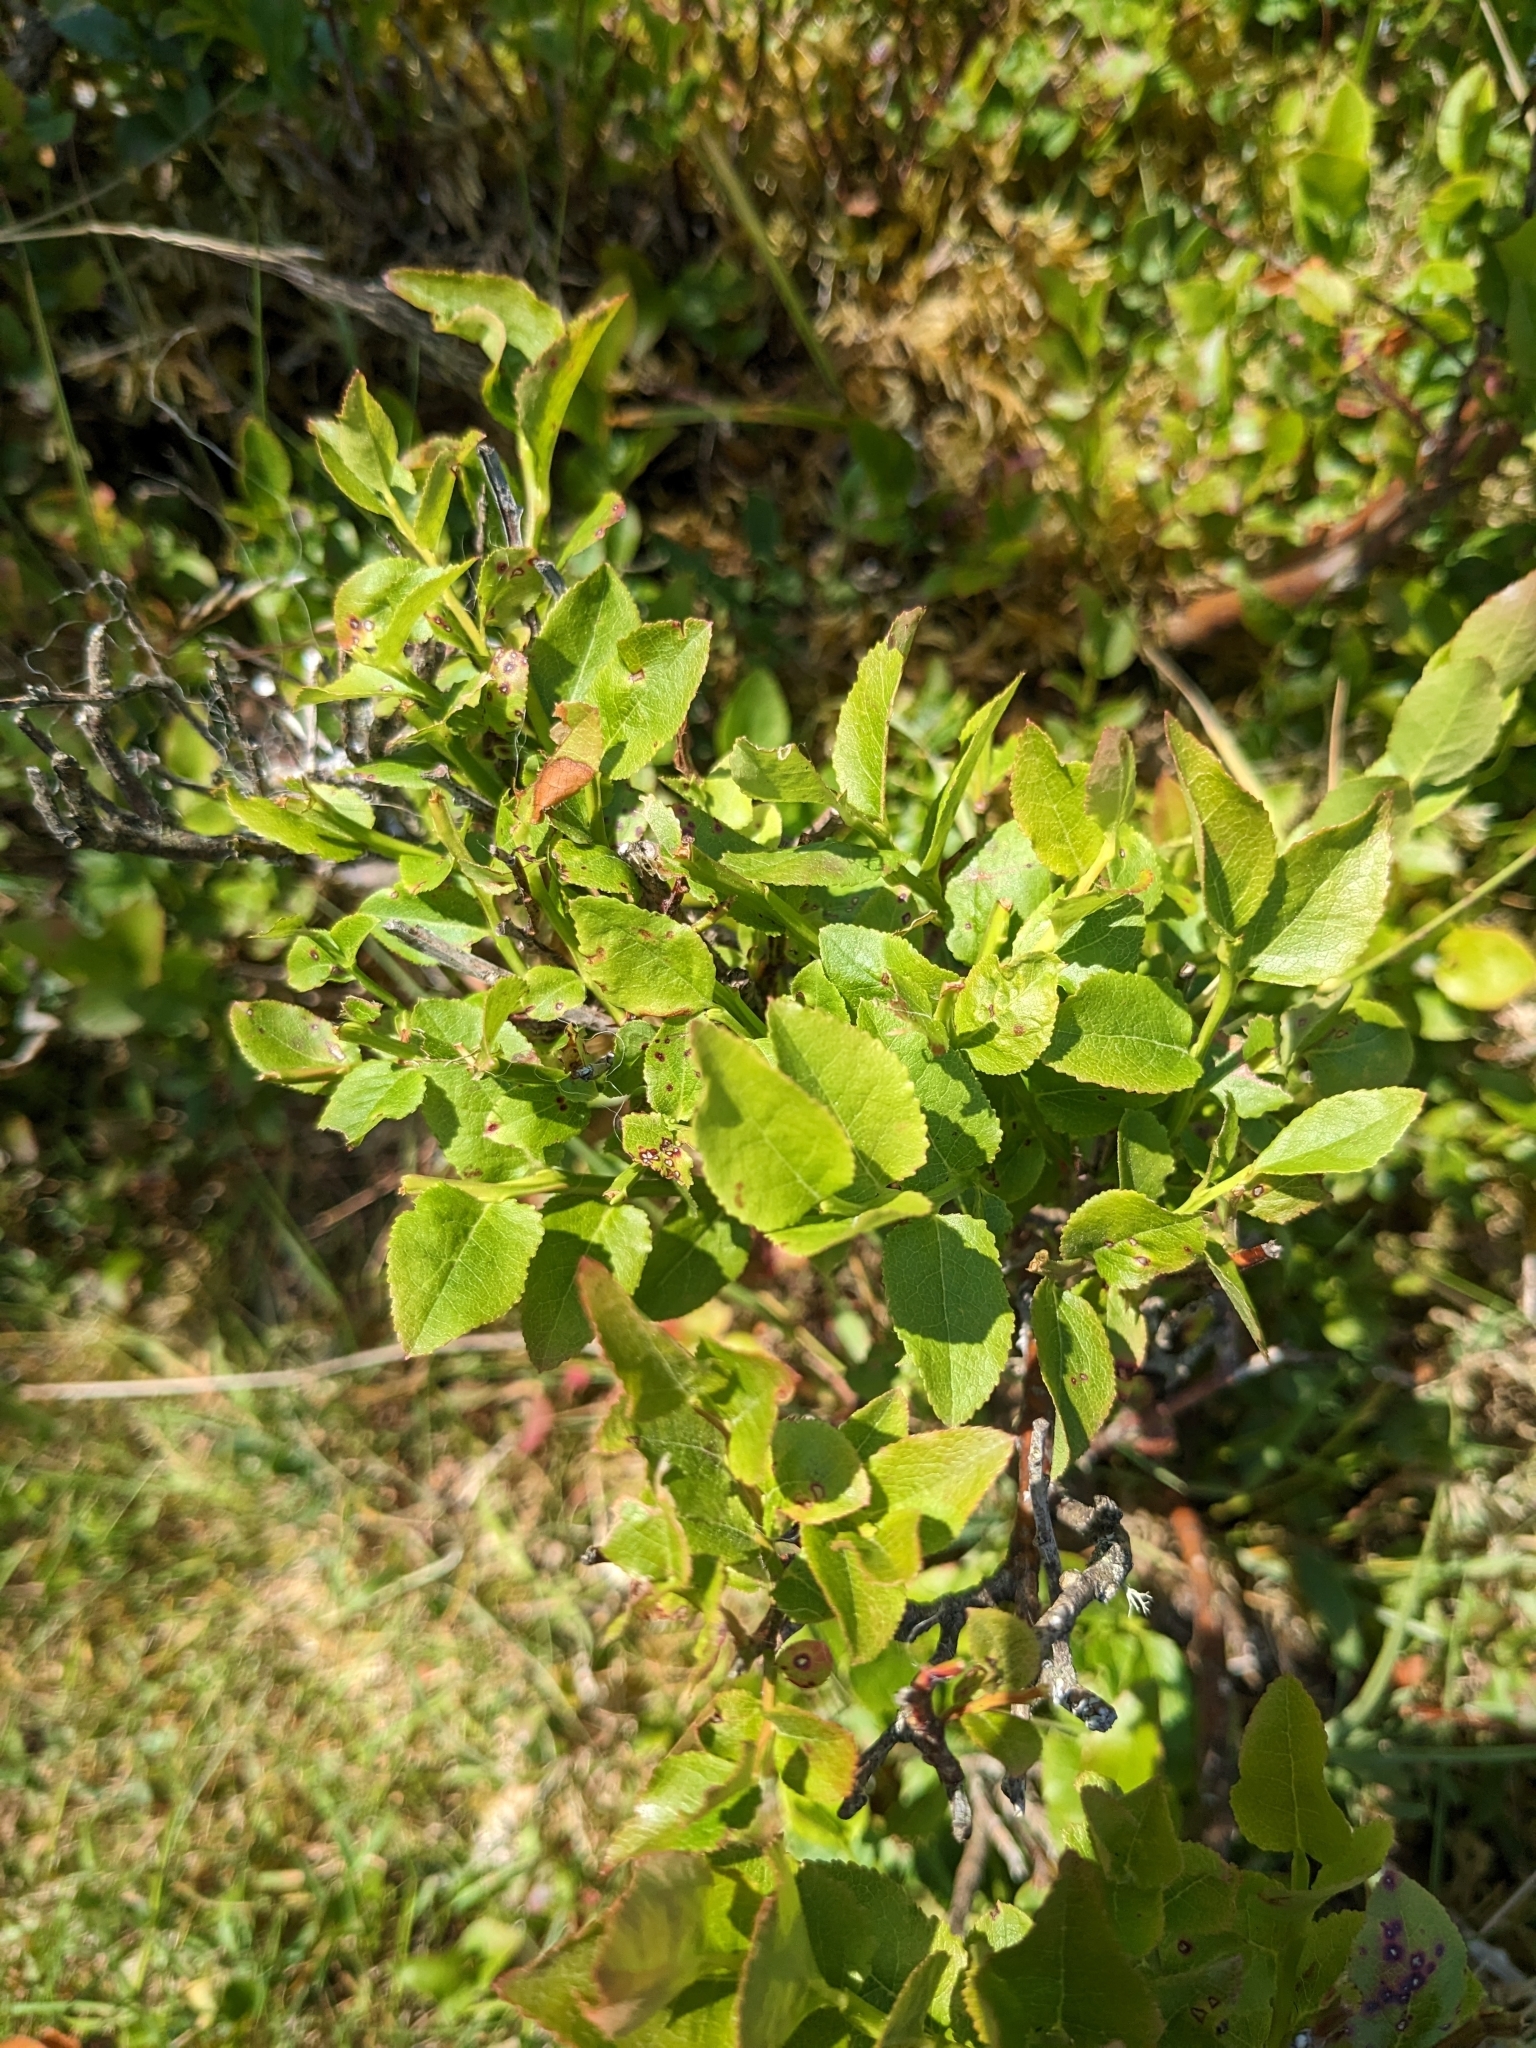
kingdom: Plantae
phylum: Tracheophyta
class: Magnoliopsida
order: Ericales
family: Ericaceae
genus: Vaccinium
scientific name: Vaccinium myrtillus
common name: Bilberry
